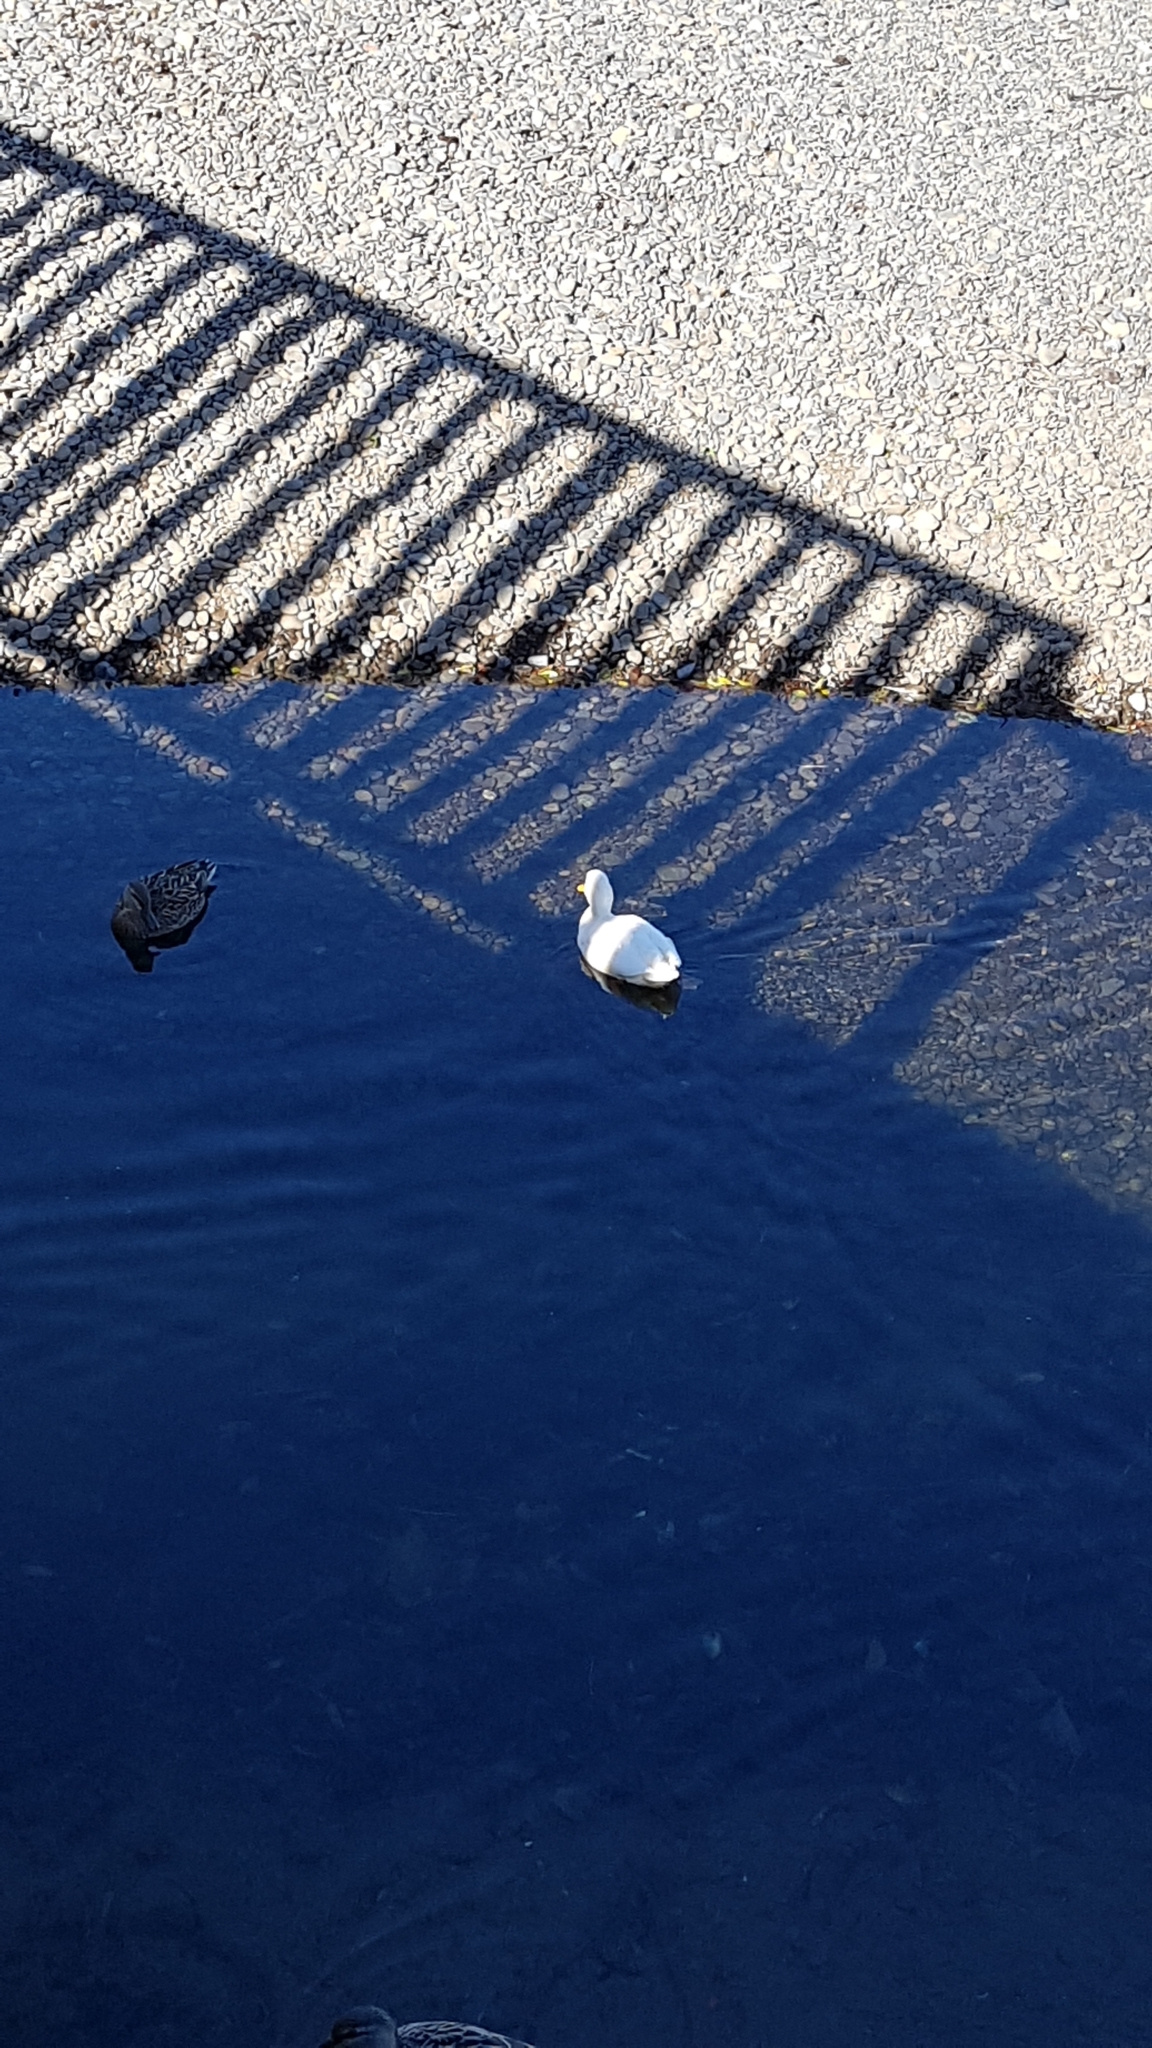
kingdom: Animalia
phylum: Chordata
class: Aves
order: Anseriformes
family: Anatidae
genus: Anas
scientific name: Anas platyrhynchos
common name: Mallard
